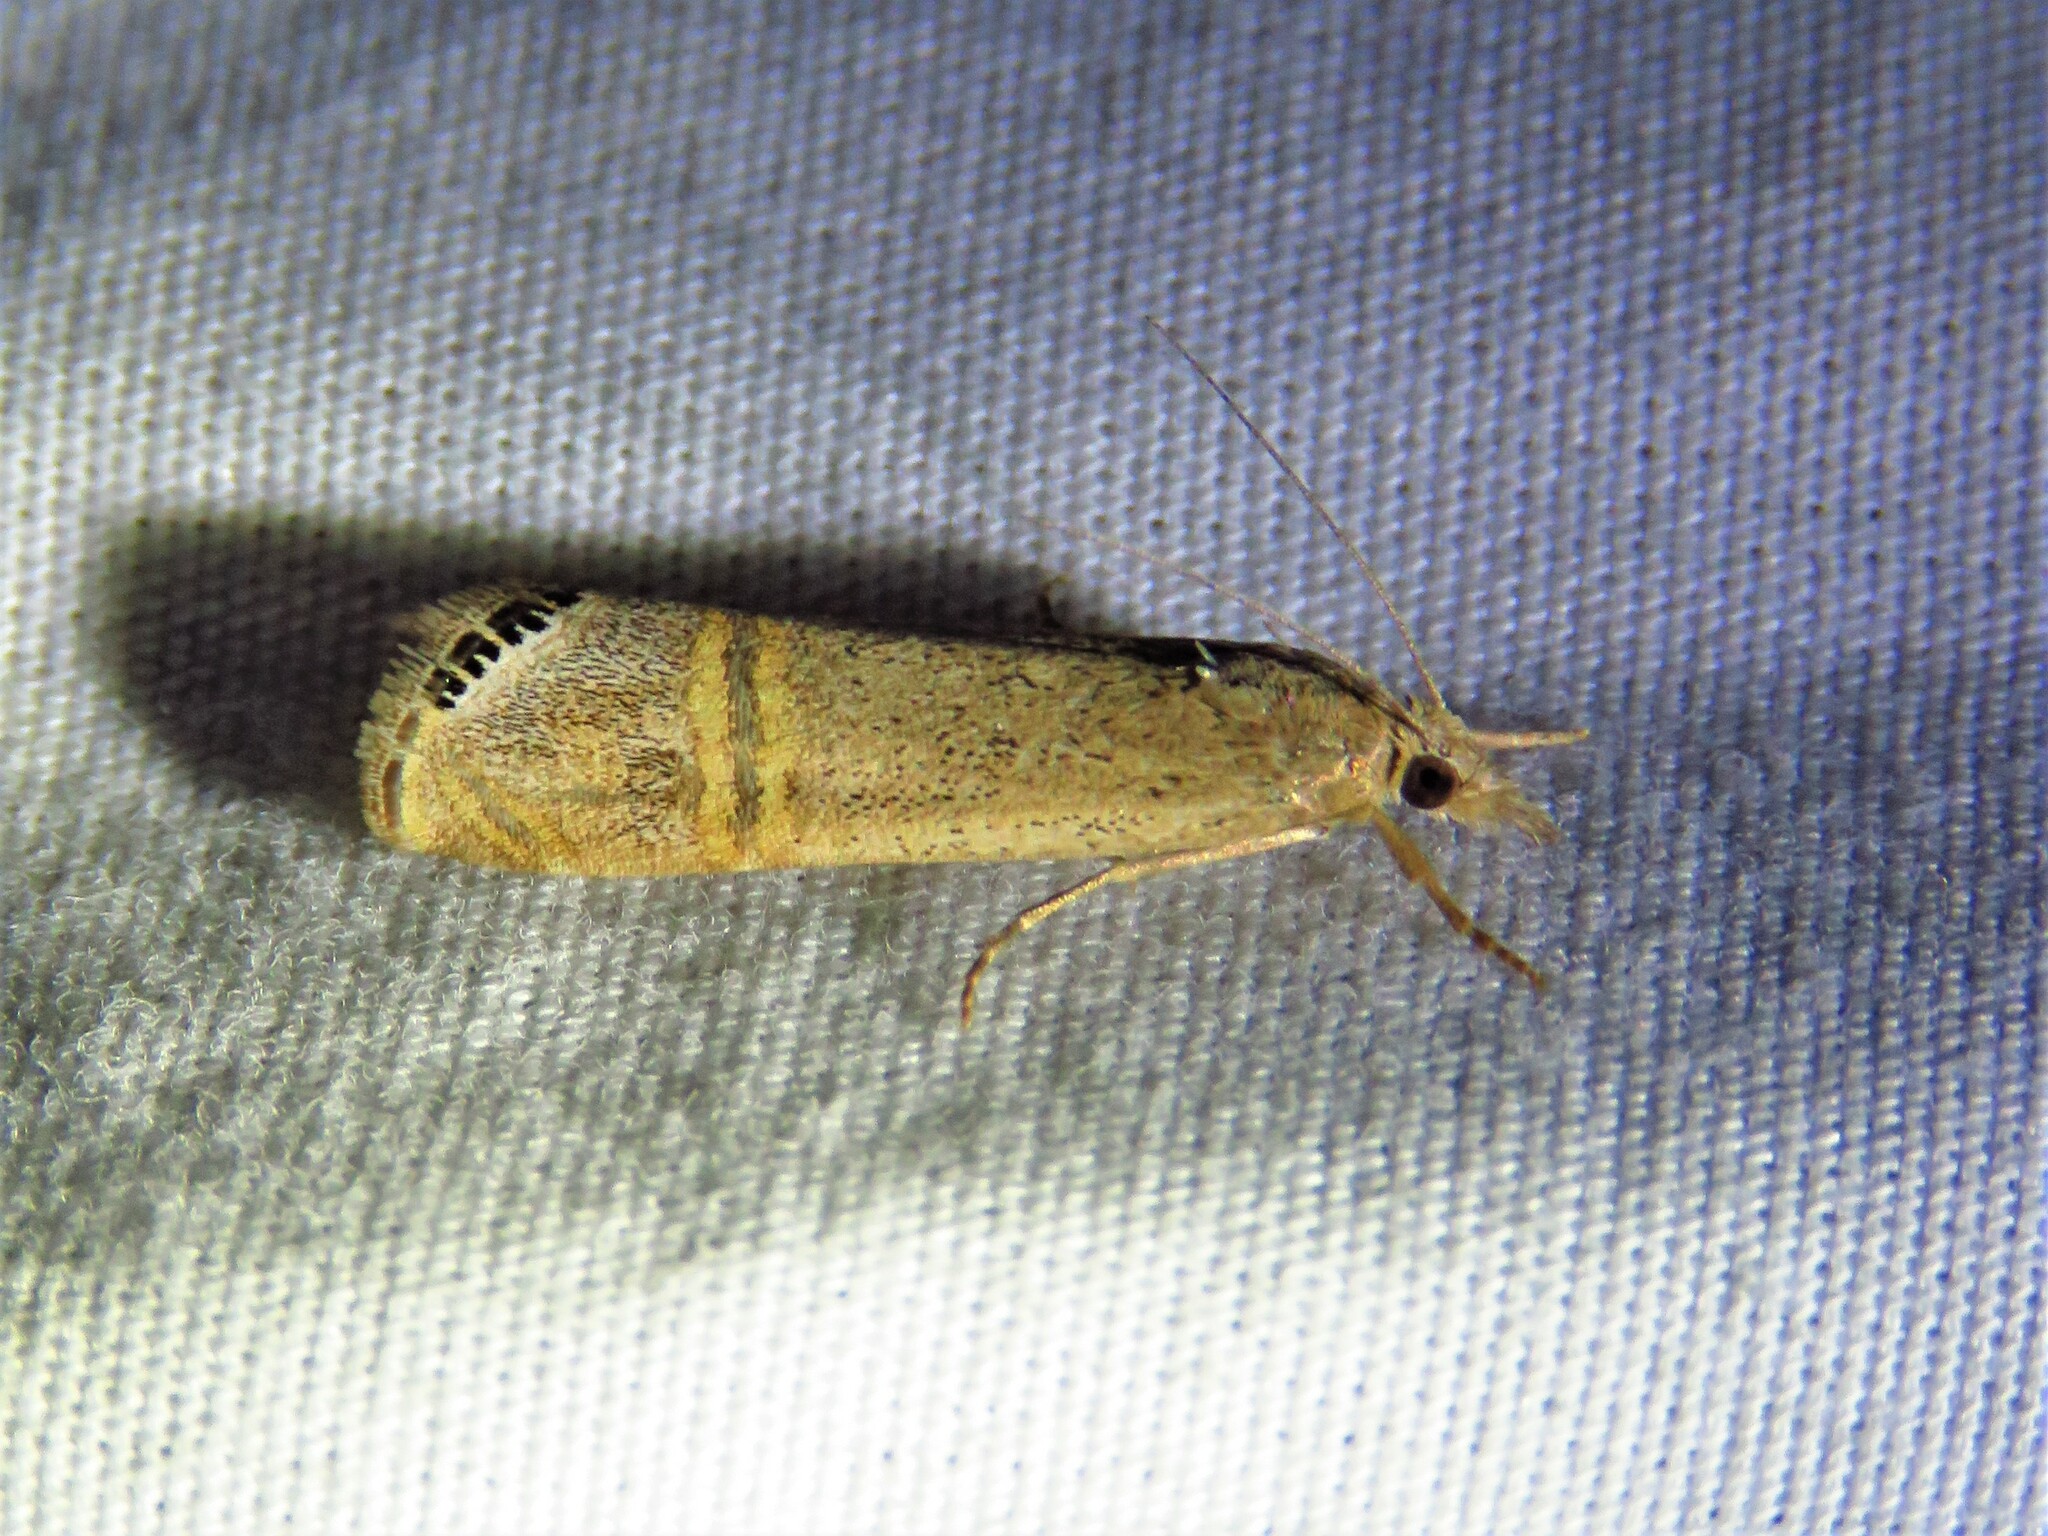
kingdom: Animalia
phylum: Arthropoda
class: Insecta
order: Lepidoptera
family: Crambidae
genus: Euchromius
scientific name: Euchromius ocellea
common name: Necklace veneer moth
